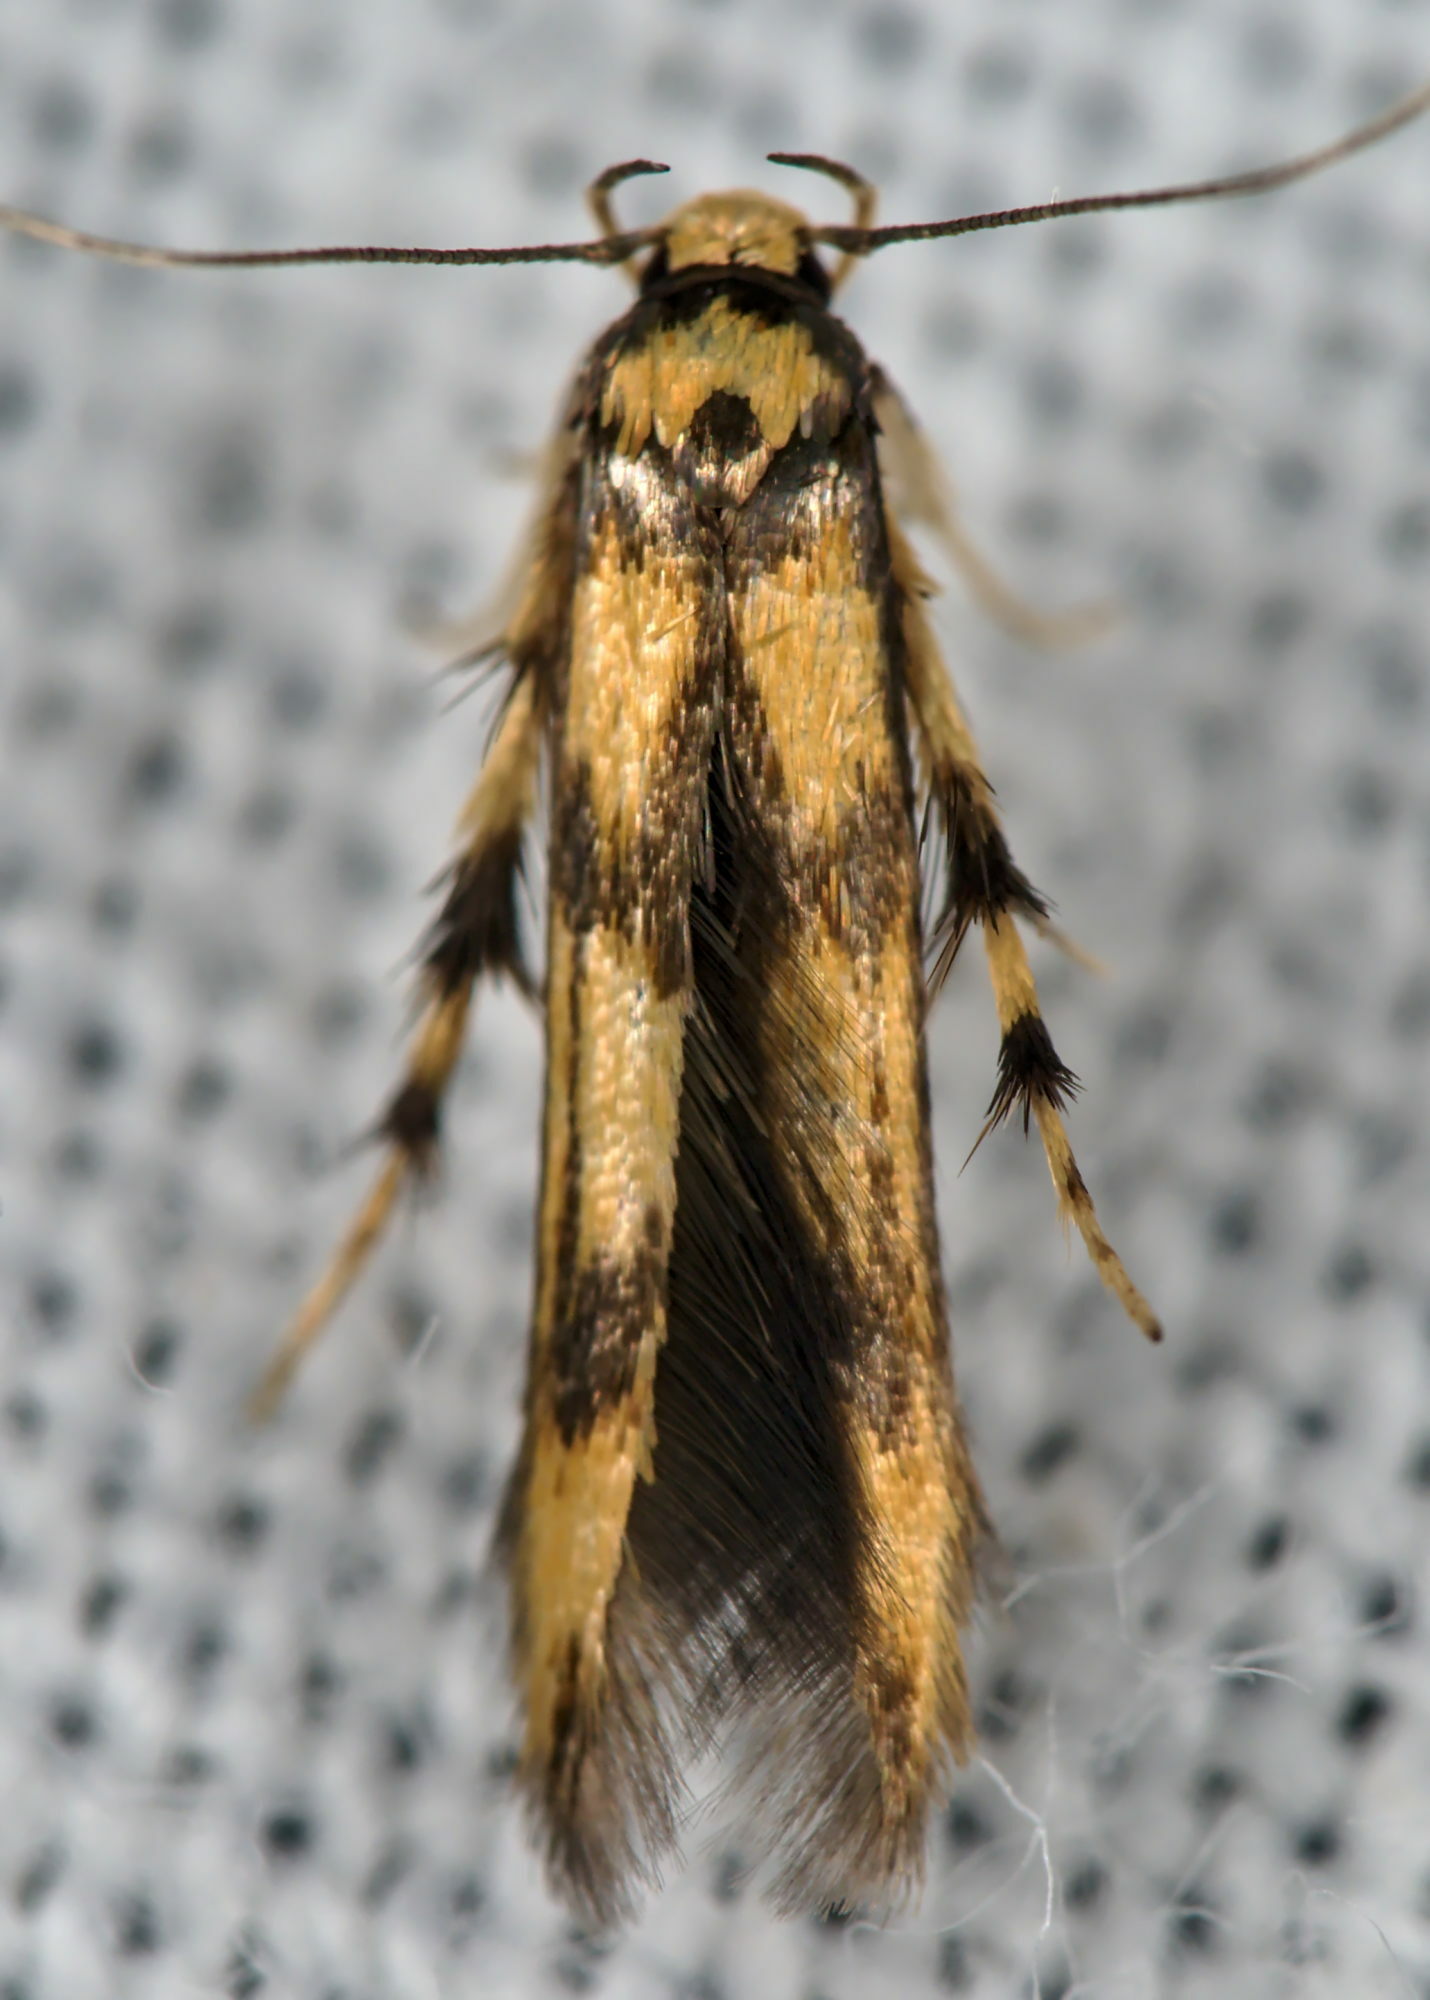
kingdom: Animalia
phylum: Arthropoda
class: Insecta
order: Lepidoptera
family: Stathmopodidae
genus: Stathmopoda
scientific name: Stathmopoda pedella
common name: Alder signal
